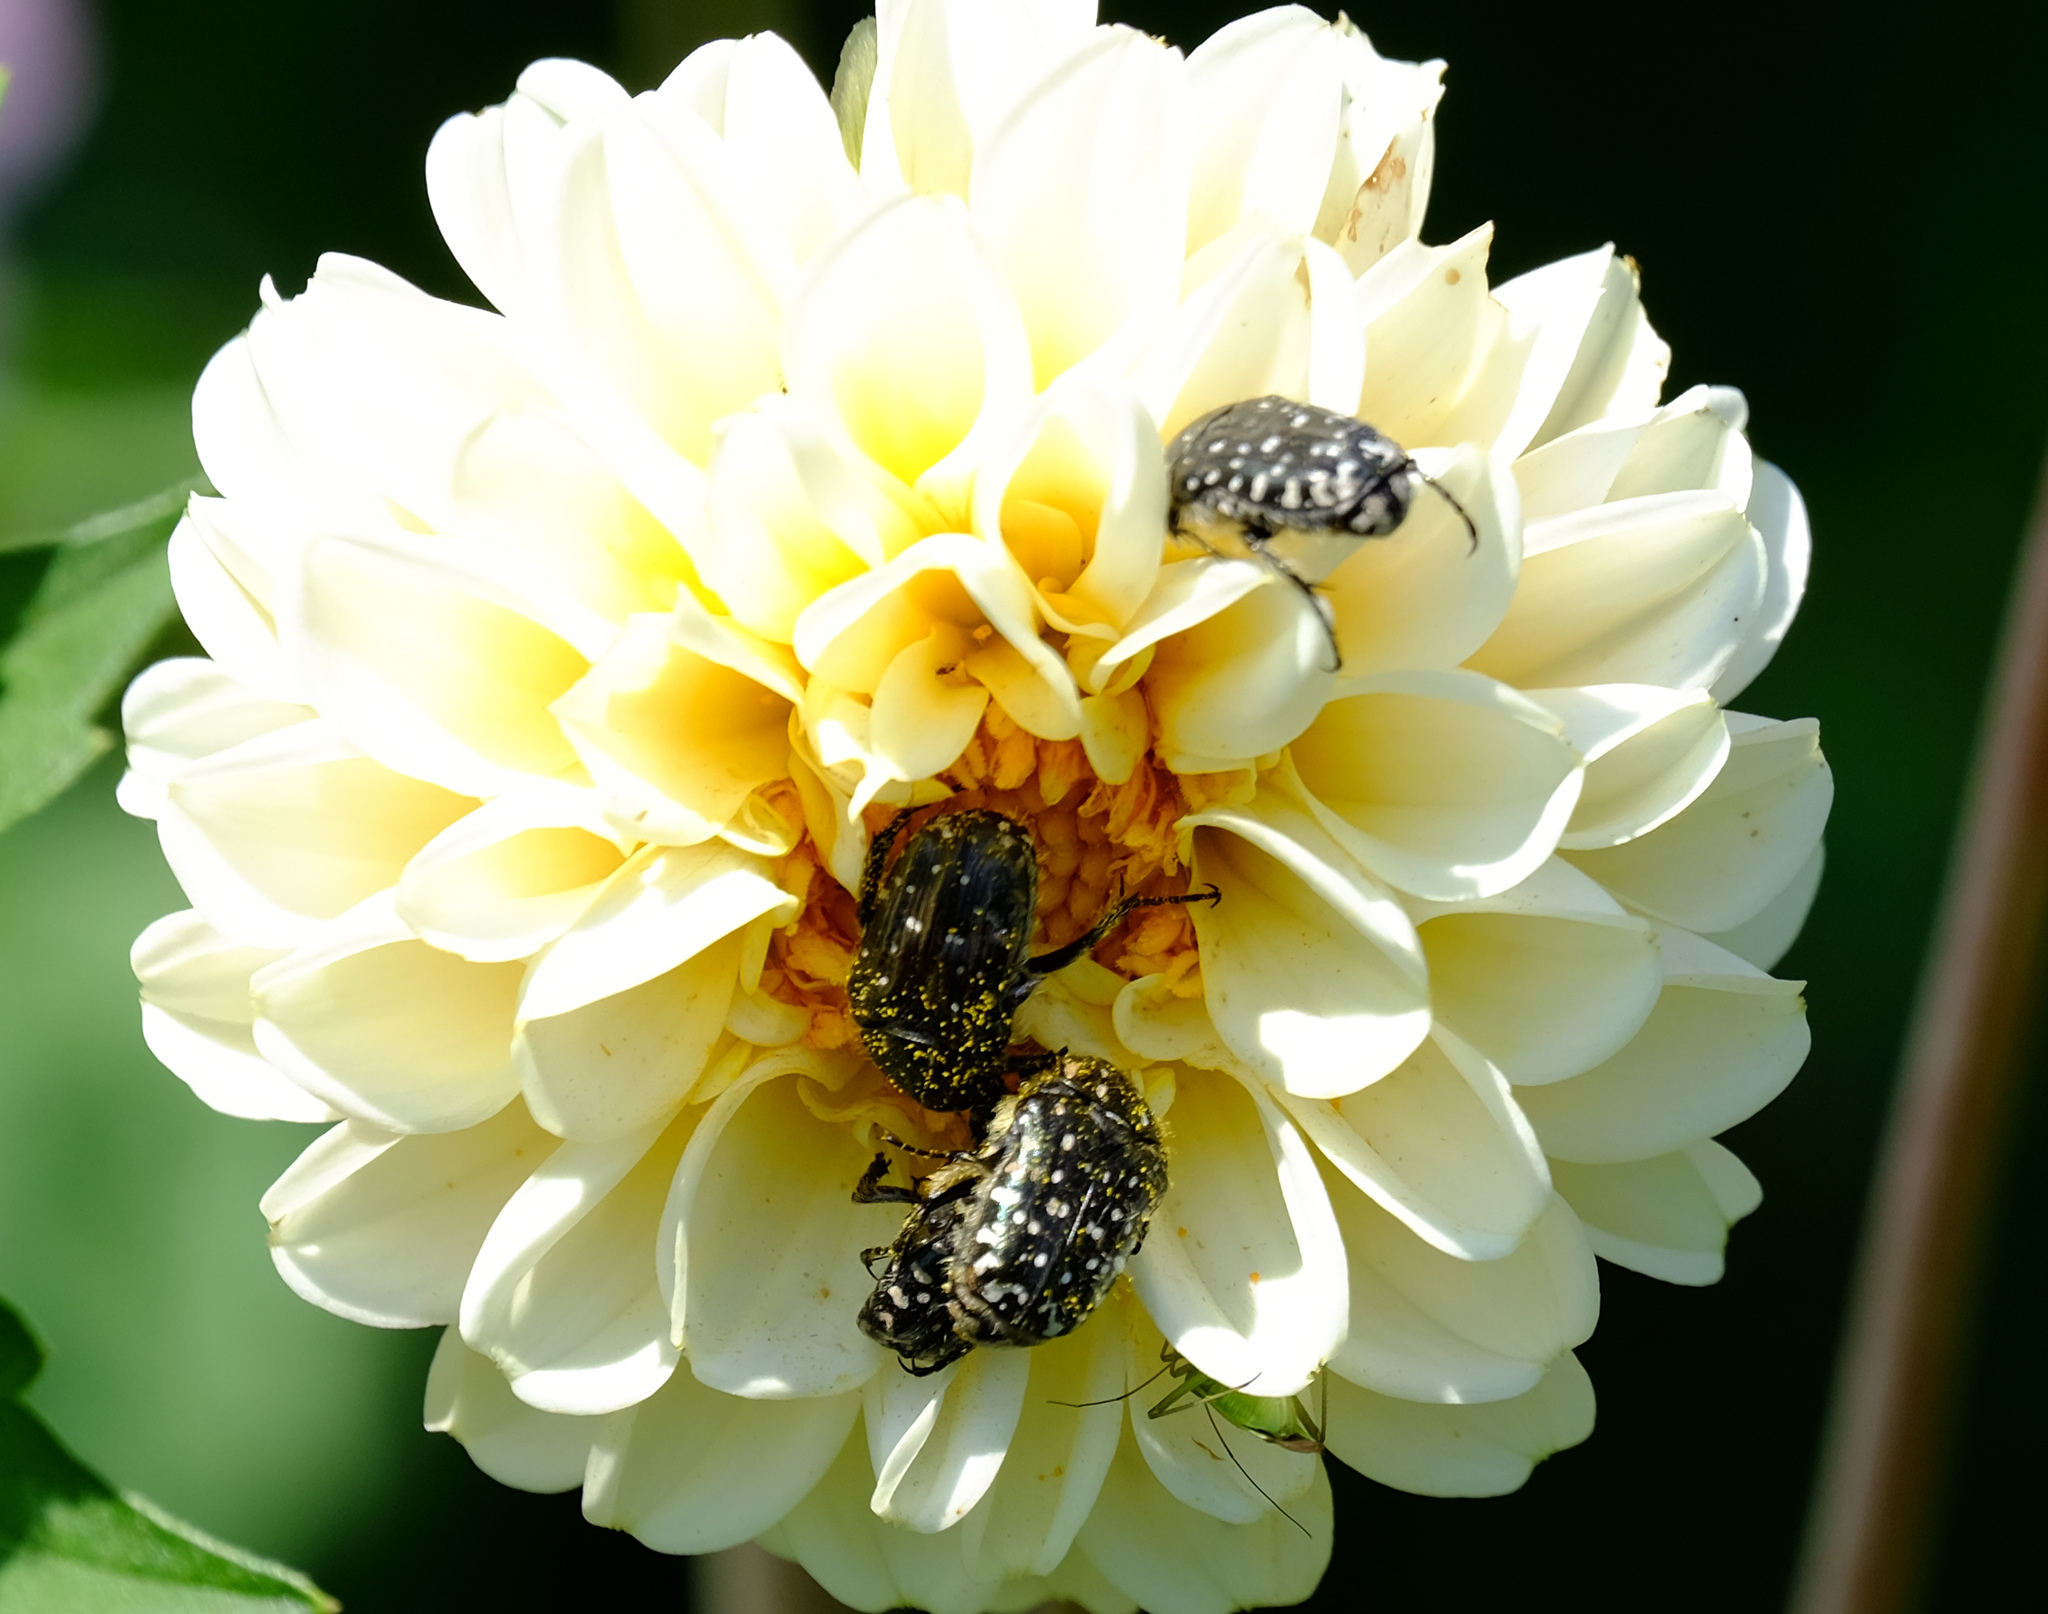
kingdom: Animalia
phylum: Arthropoda
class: Insecta
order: Coleoptera
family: Scarabaeidae
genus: Oxythyrea
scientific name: Oxythyrea funesta
